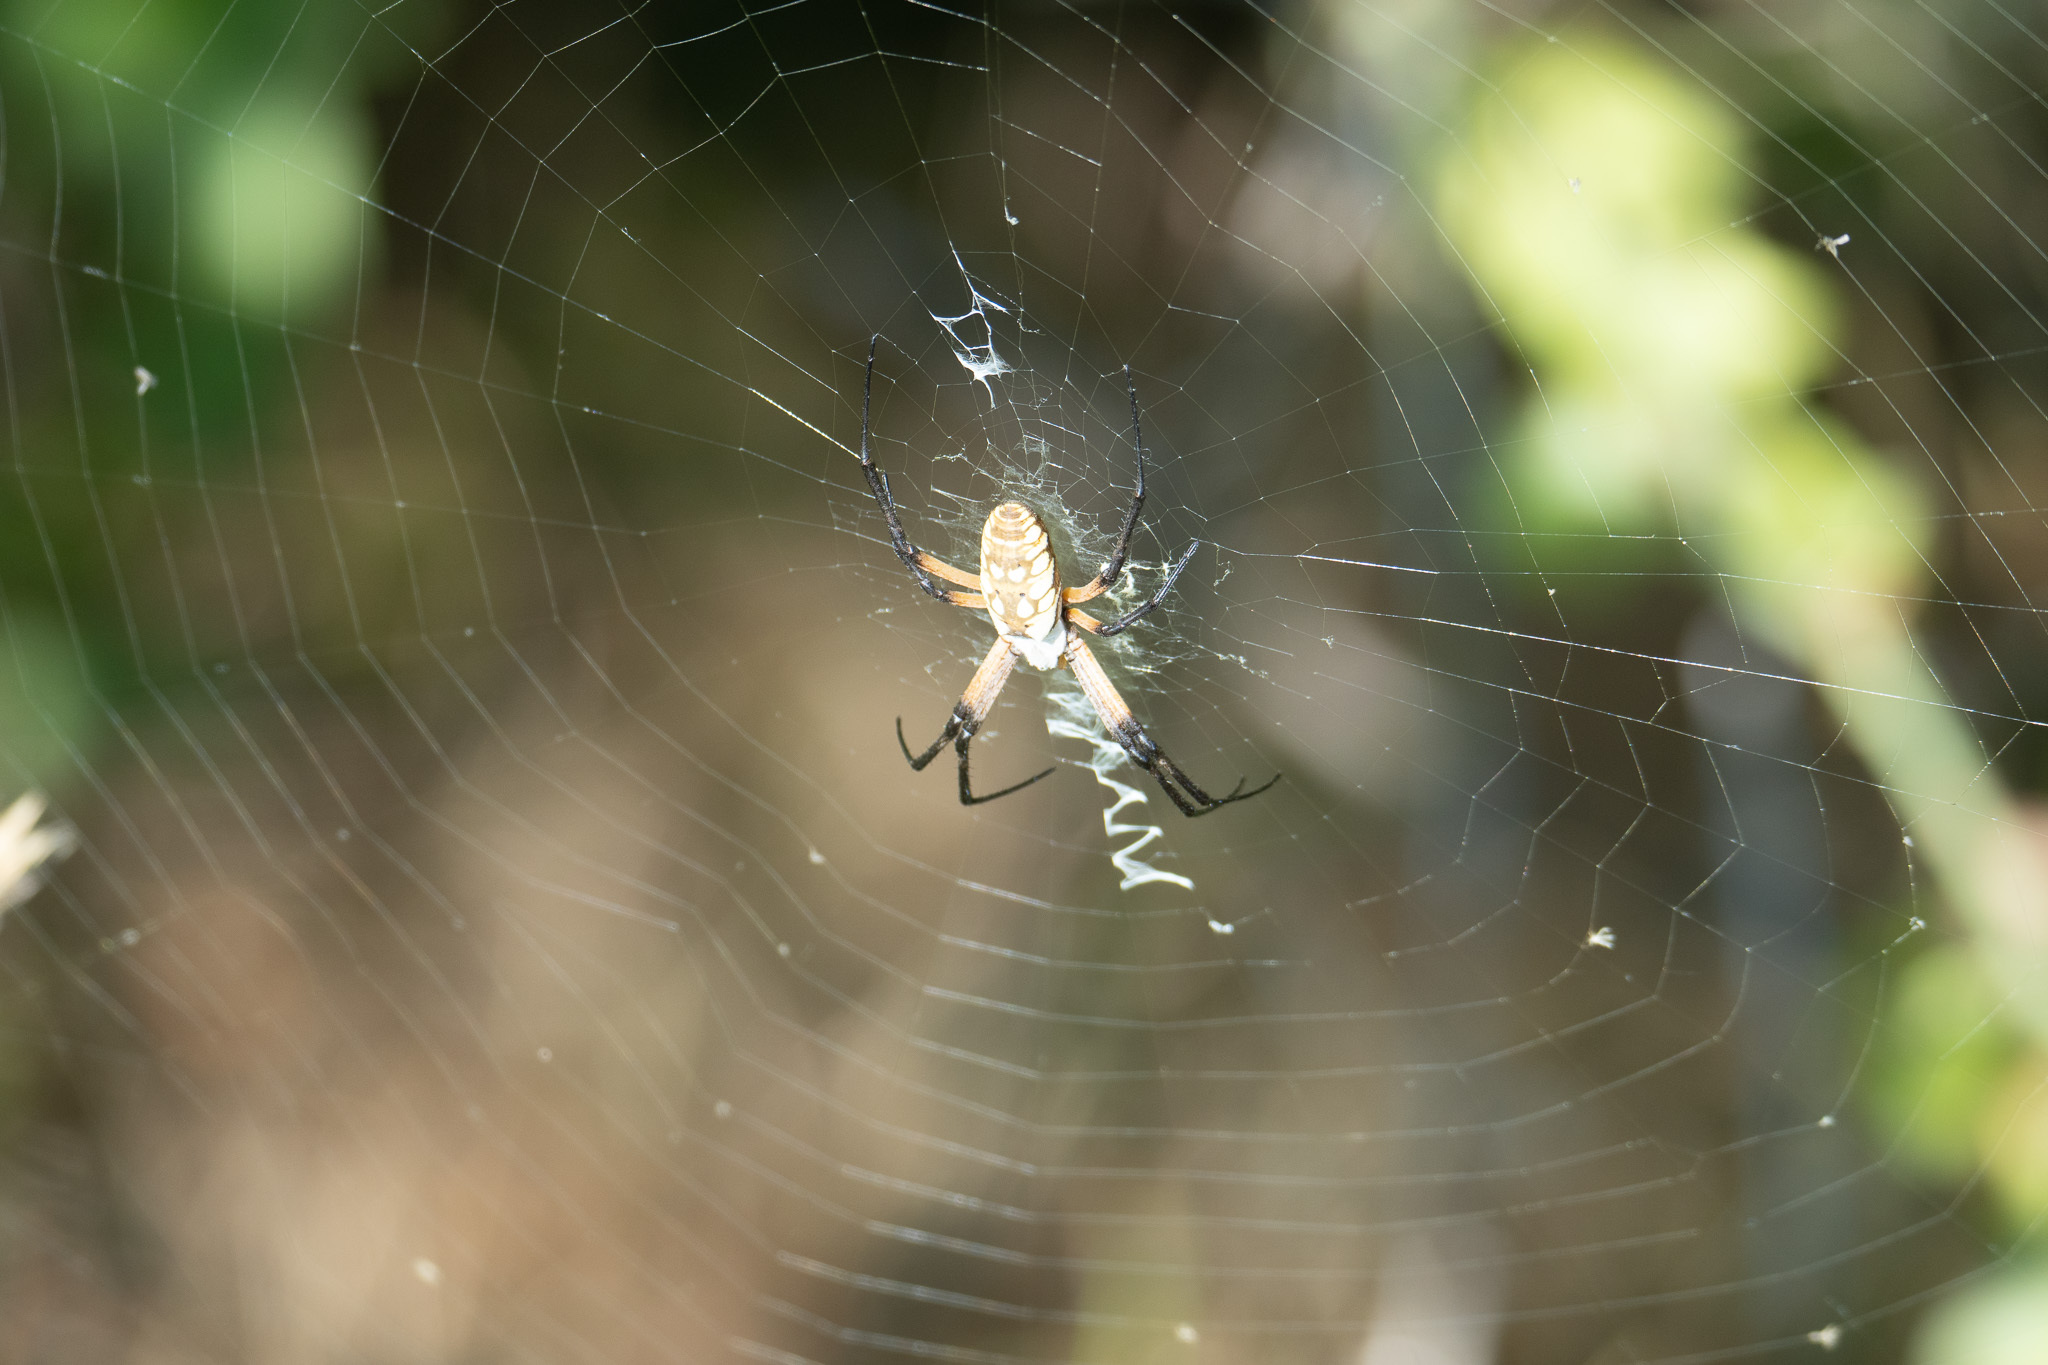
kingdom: Animalia
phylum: Arthropoda
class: Arachnida
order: Araneae
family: Araneidae
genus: Argiope
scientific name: Argiope aurantia
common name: Orb weavers
